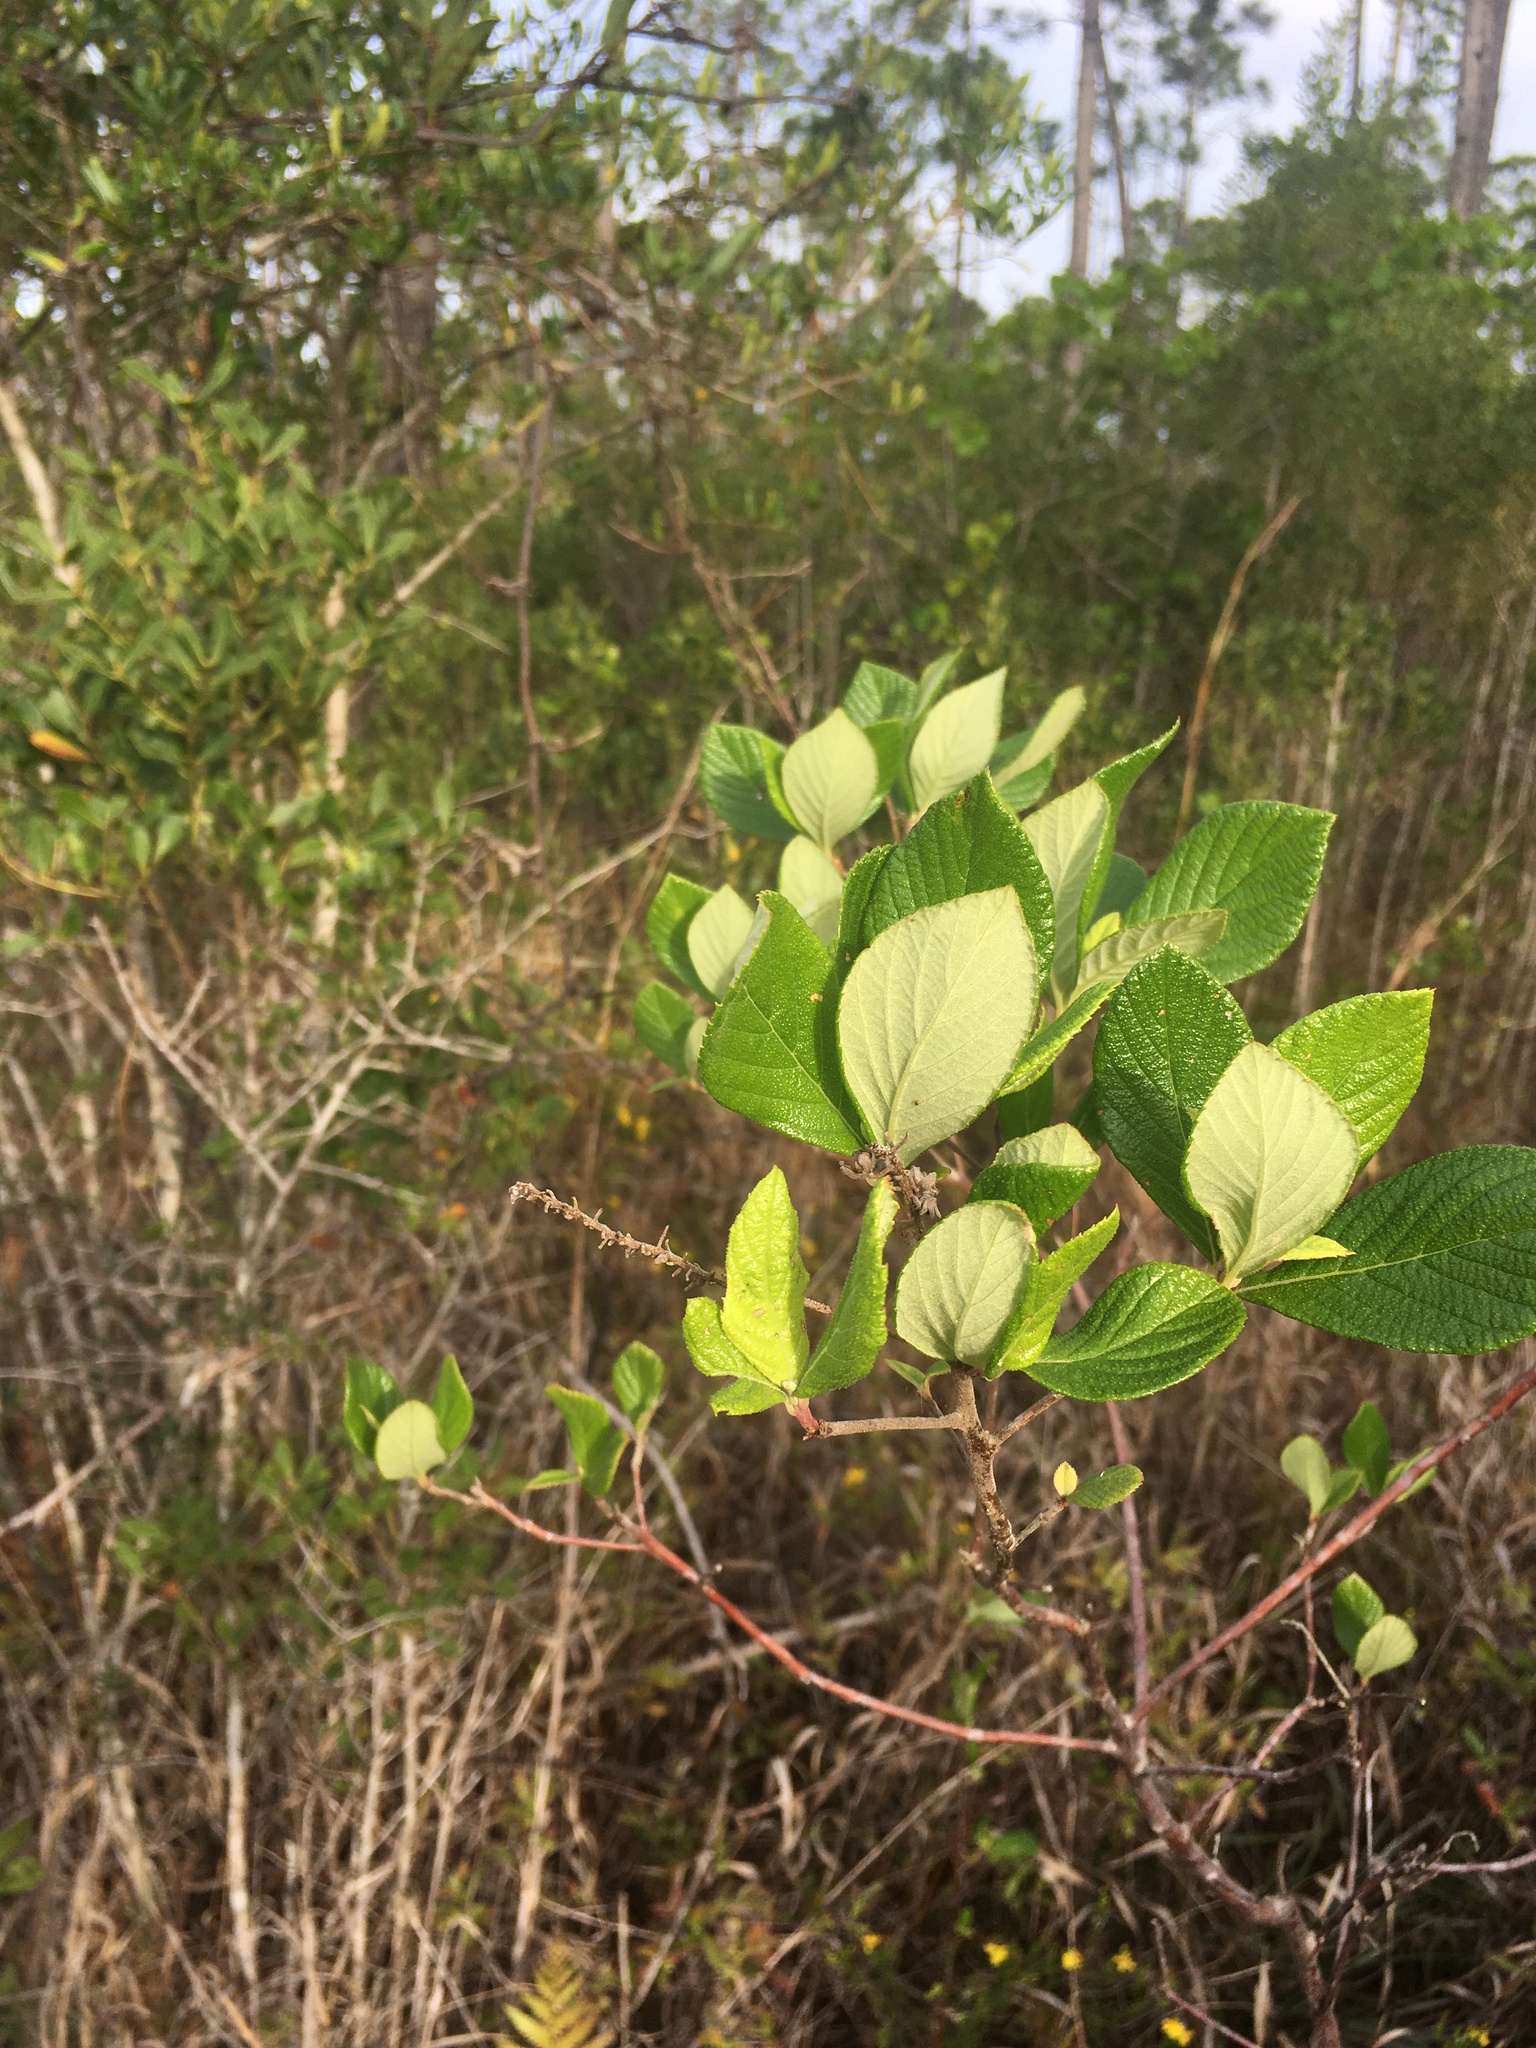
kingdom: Plantae
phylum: Tracheophyta
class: Magnoliopsida
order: Ericales
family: Clethraceae
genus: Clethra
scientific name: Clethra tomentosa
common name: Downy sweet pepperbush
